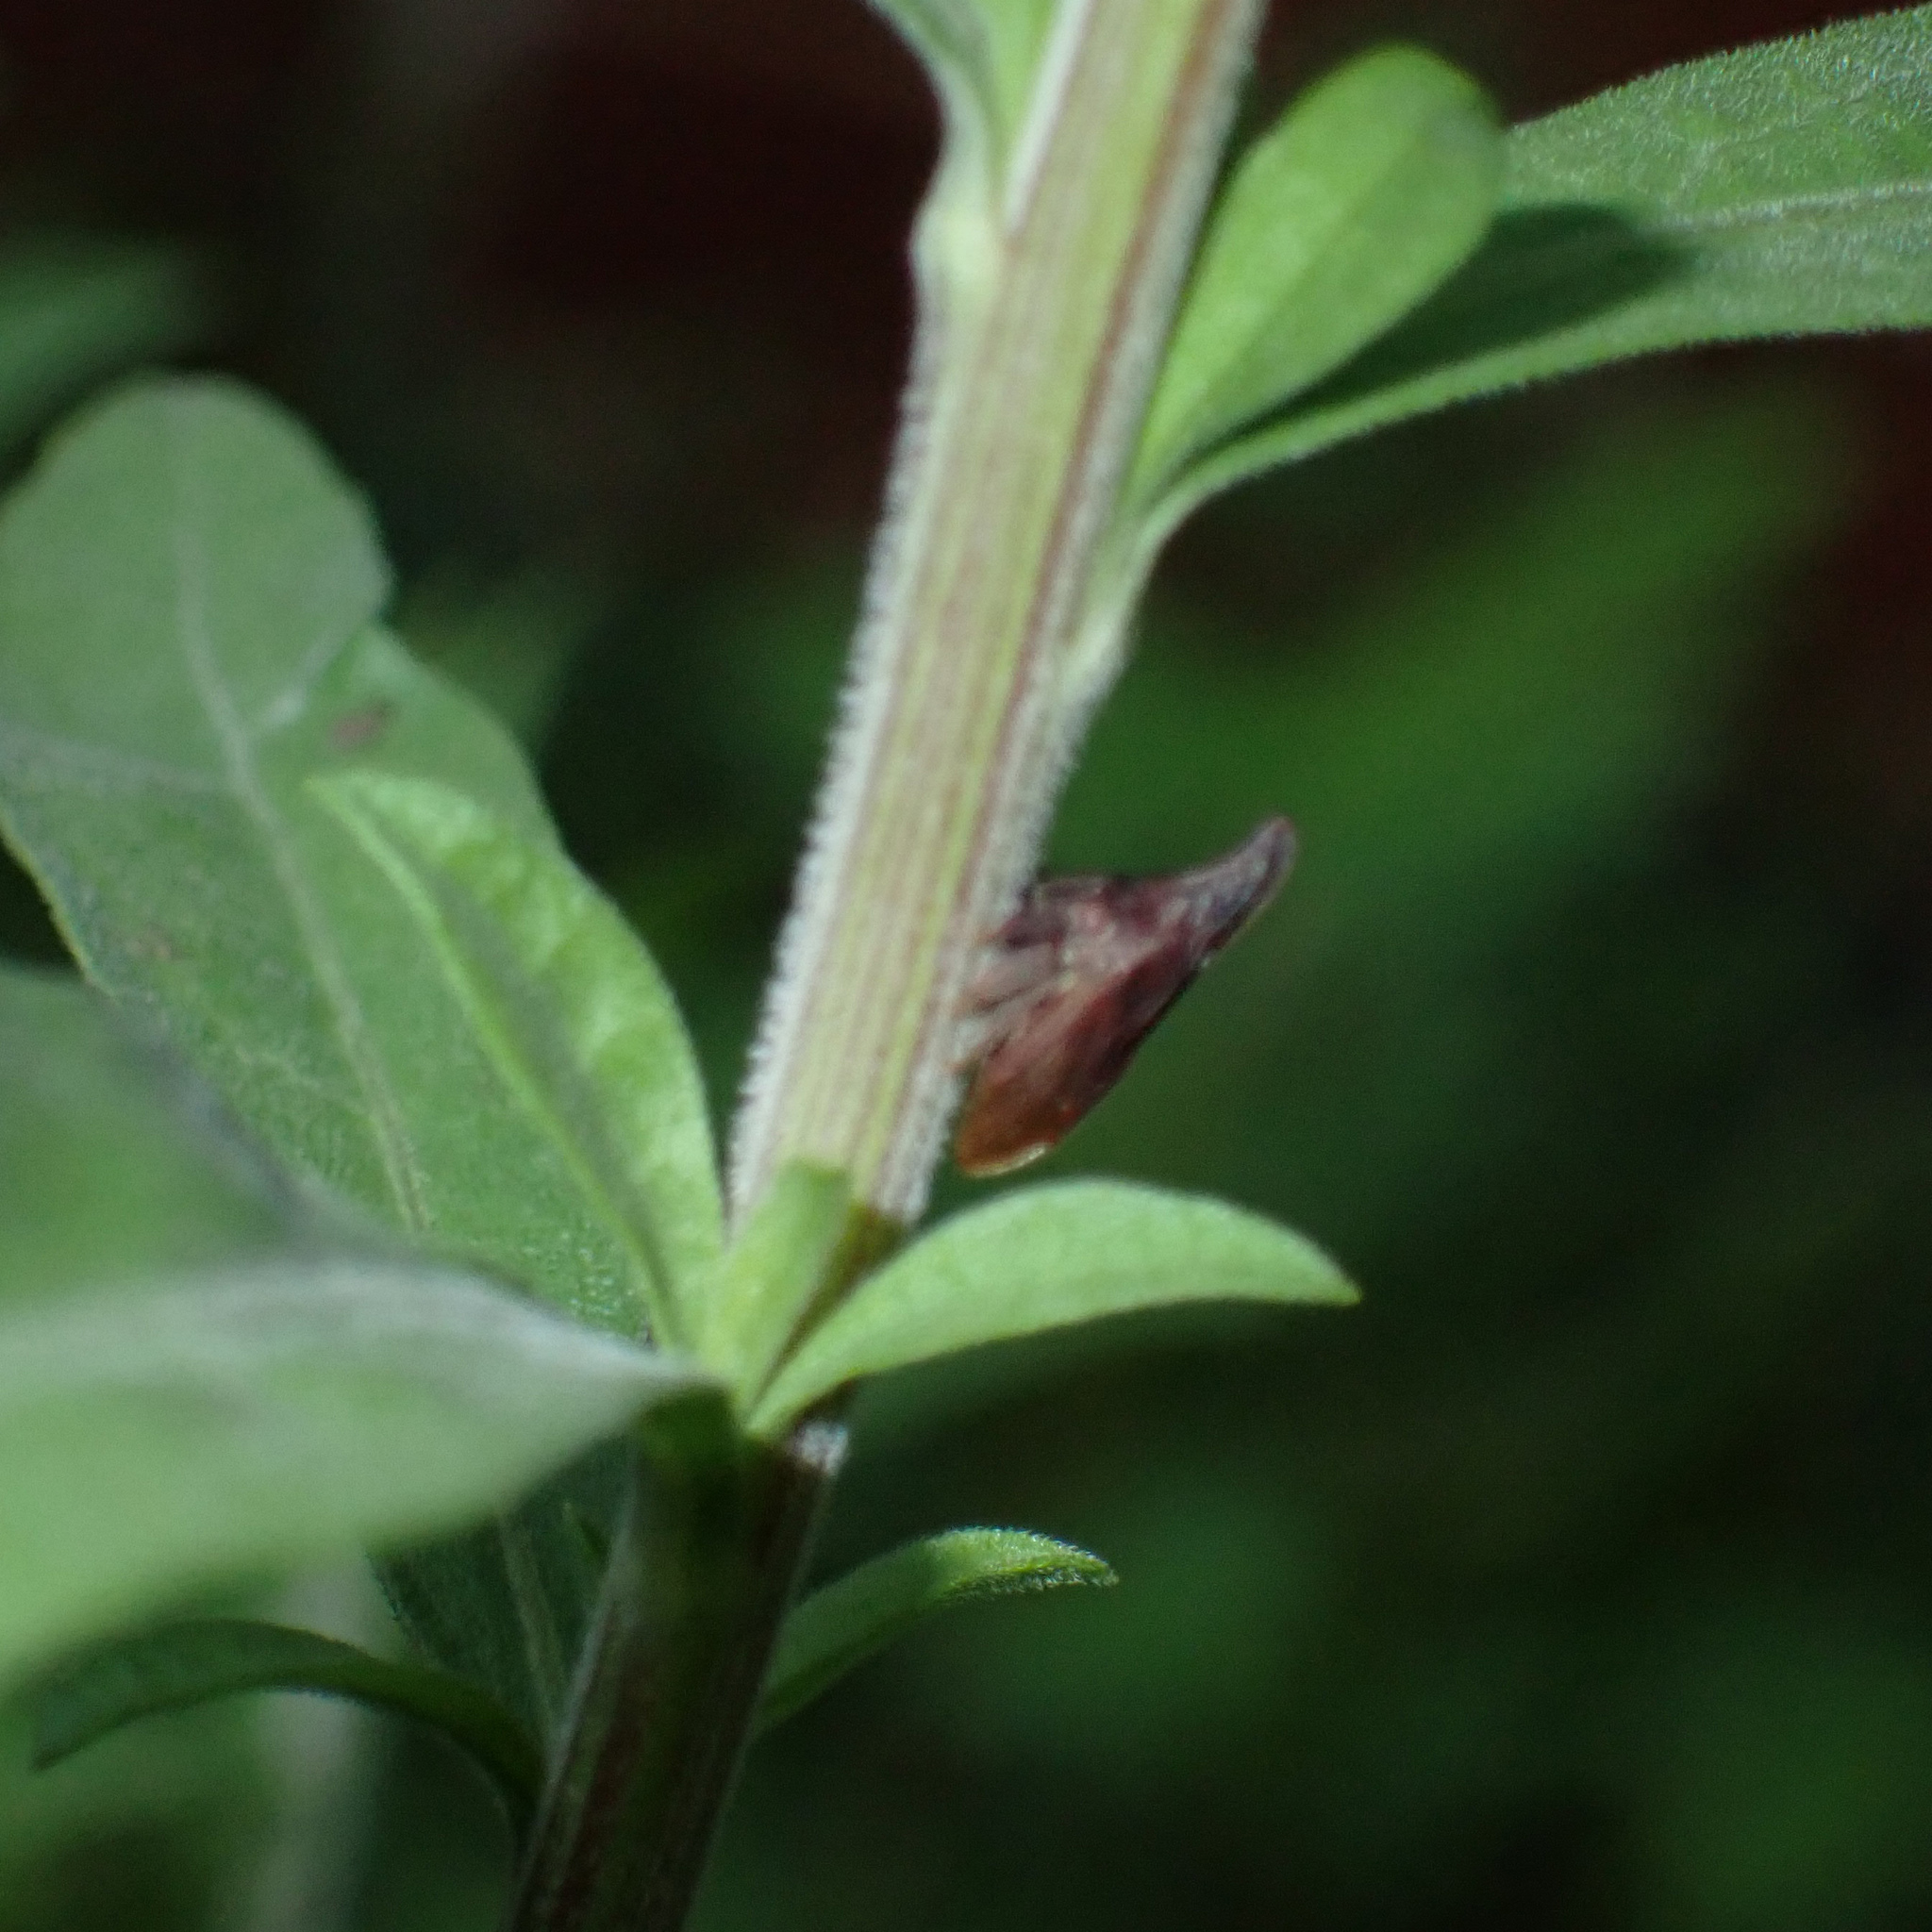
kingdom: Animalia
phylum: Arthropoda
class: Insecta
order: Hemiptera
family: Membracidae
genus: Enchenopa
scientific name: Enchenopa latipes
